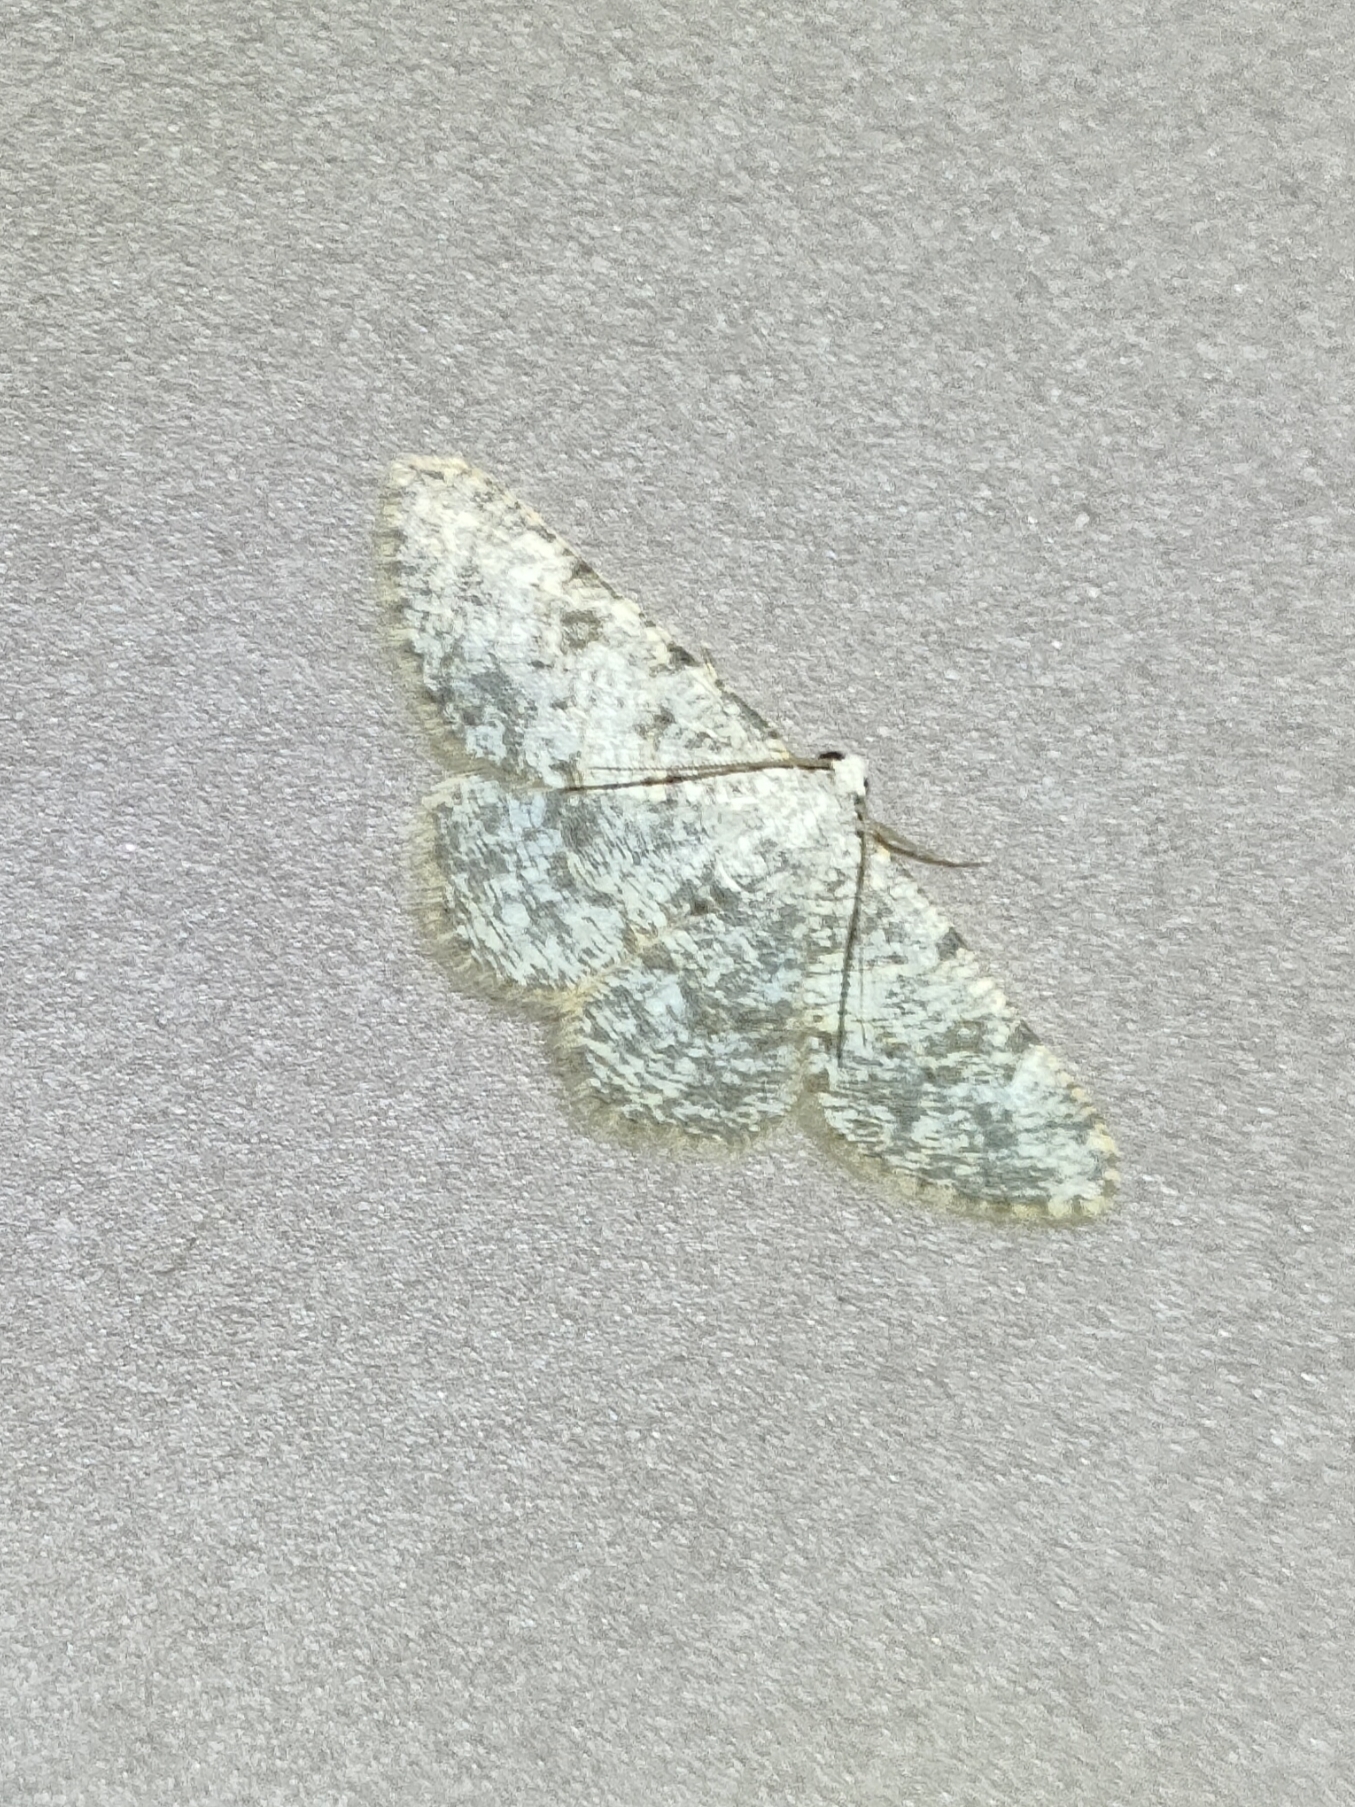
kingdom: Animalia
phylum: Arthropoda
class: Insecta
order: Lepidoptera
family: Geometridae
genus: Charissa
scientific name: Charissa mucidaria
